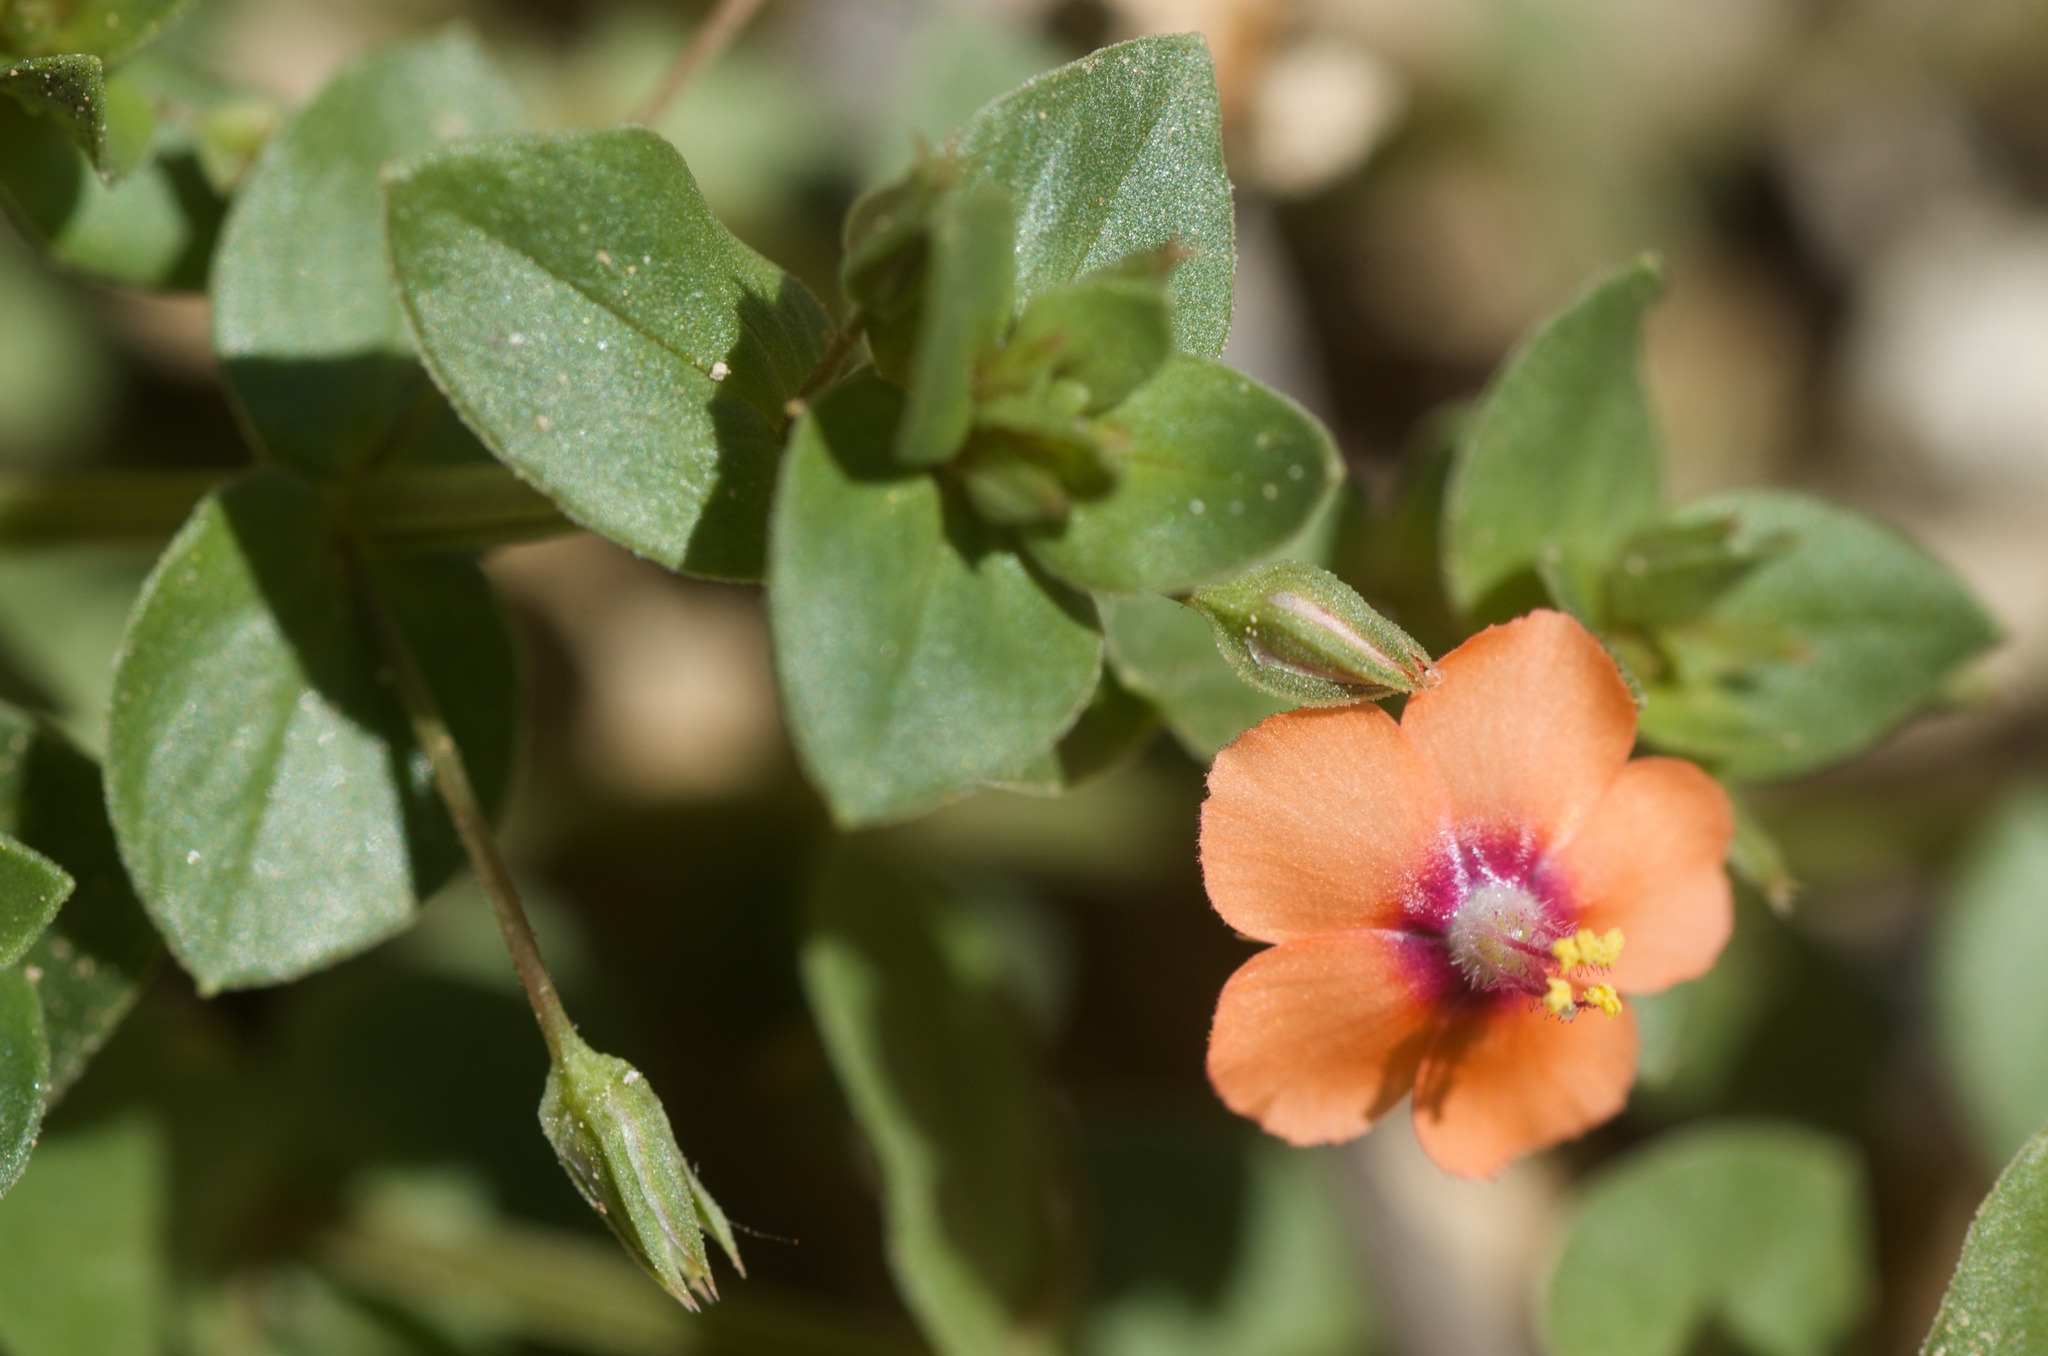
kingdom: Plantae
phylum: Tracheophyta
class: Magnoliopsida
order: Ericales
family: Primulaceae
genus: Lysimachia
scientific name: Lysimachia arvensis
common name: Scarlet pimpernel
